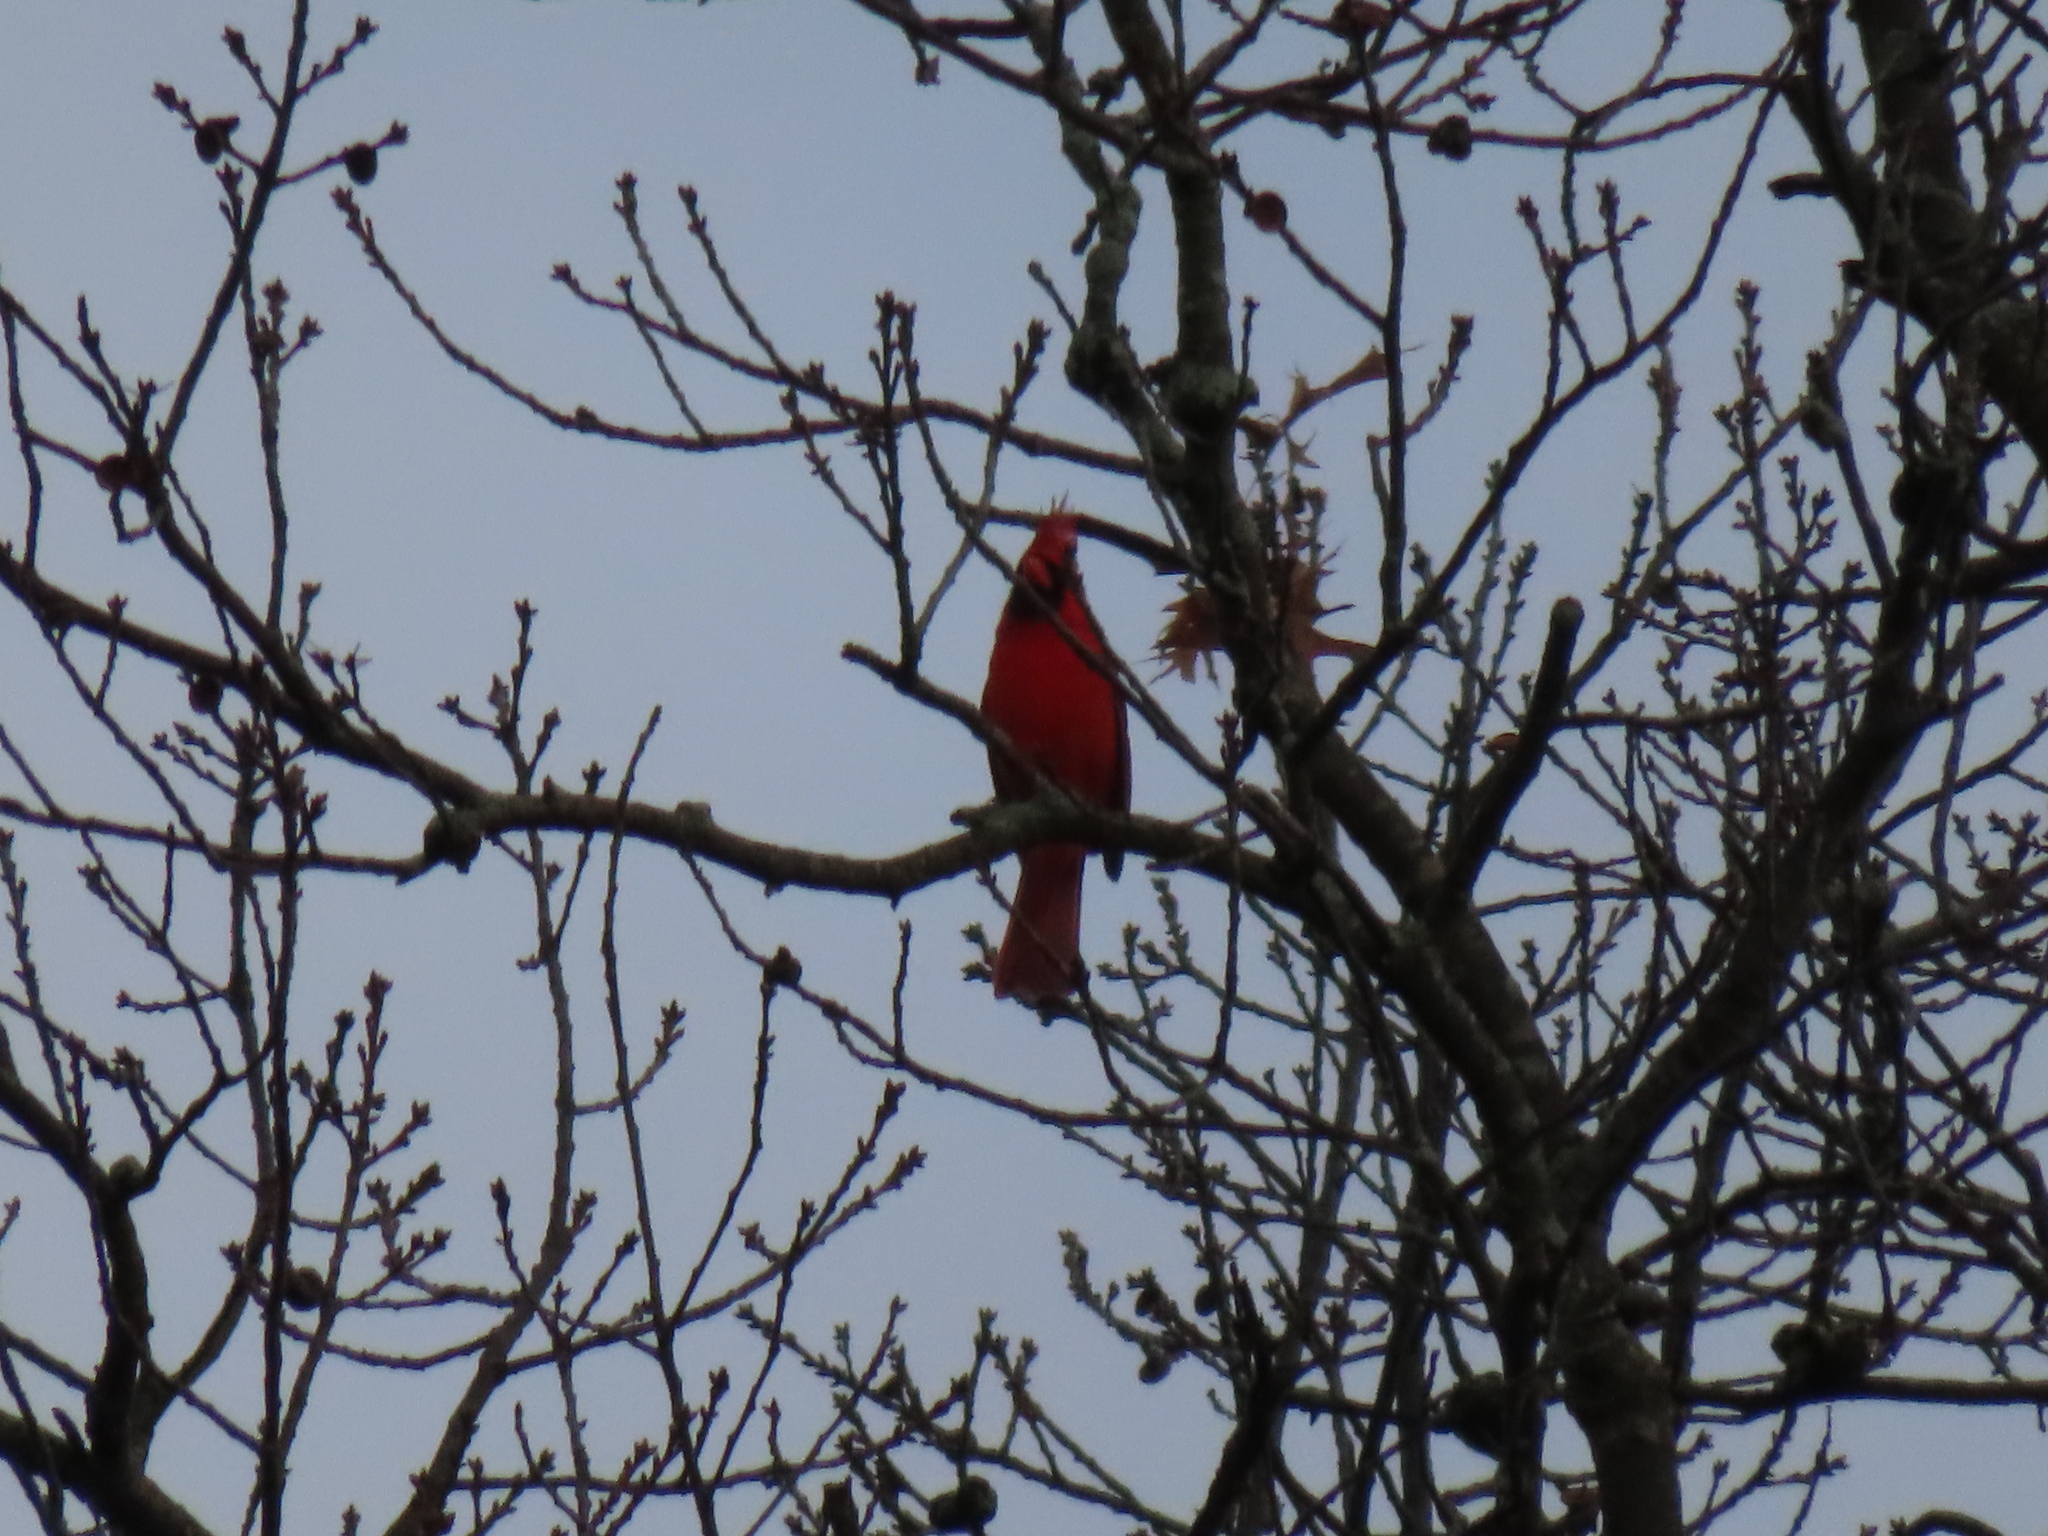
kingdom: Animalia
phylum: Chordata
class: Aves
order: Passeriformes
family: Cardinalidae
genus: Cardinalis
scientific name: Cardinalis cardinalis
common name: Northern cardinal
